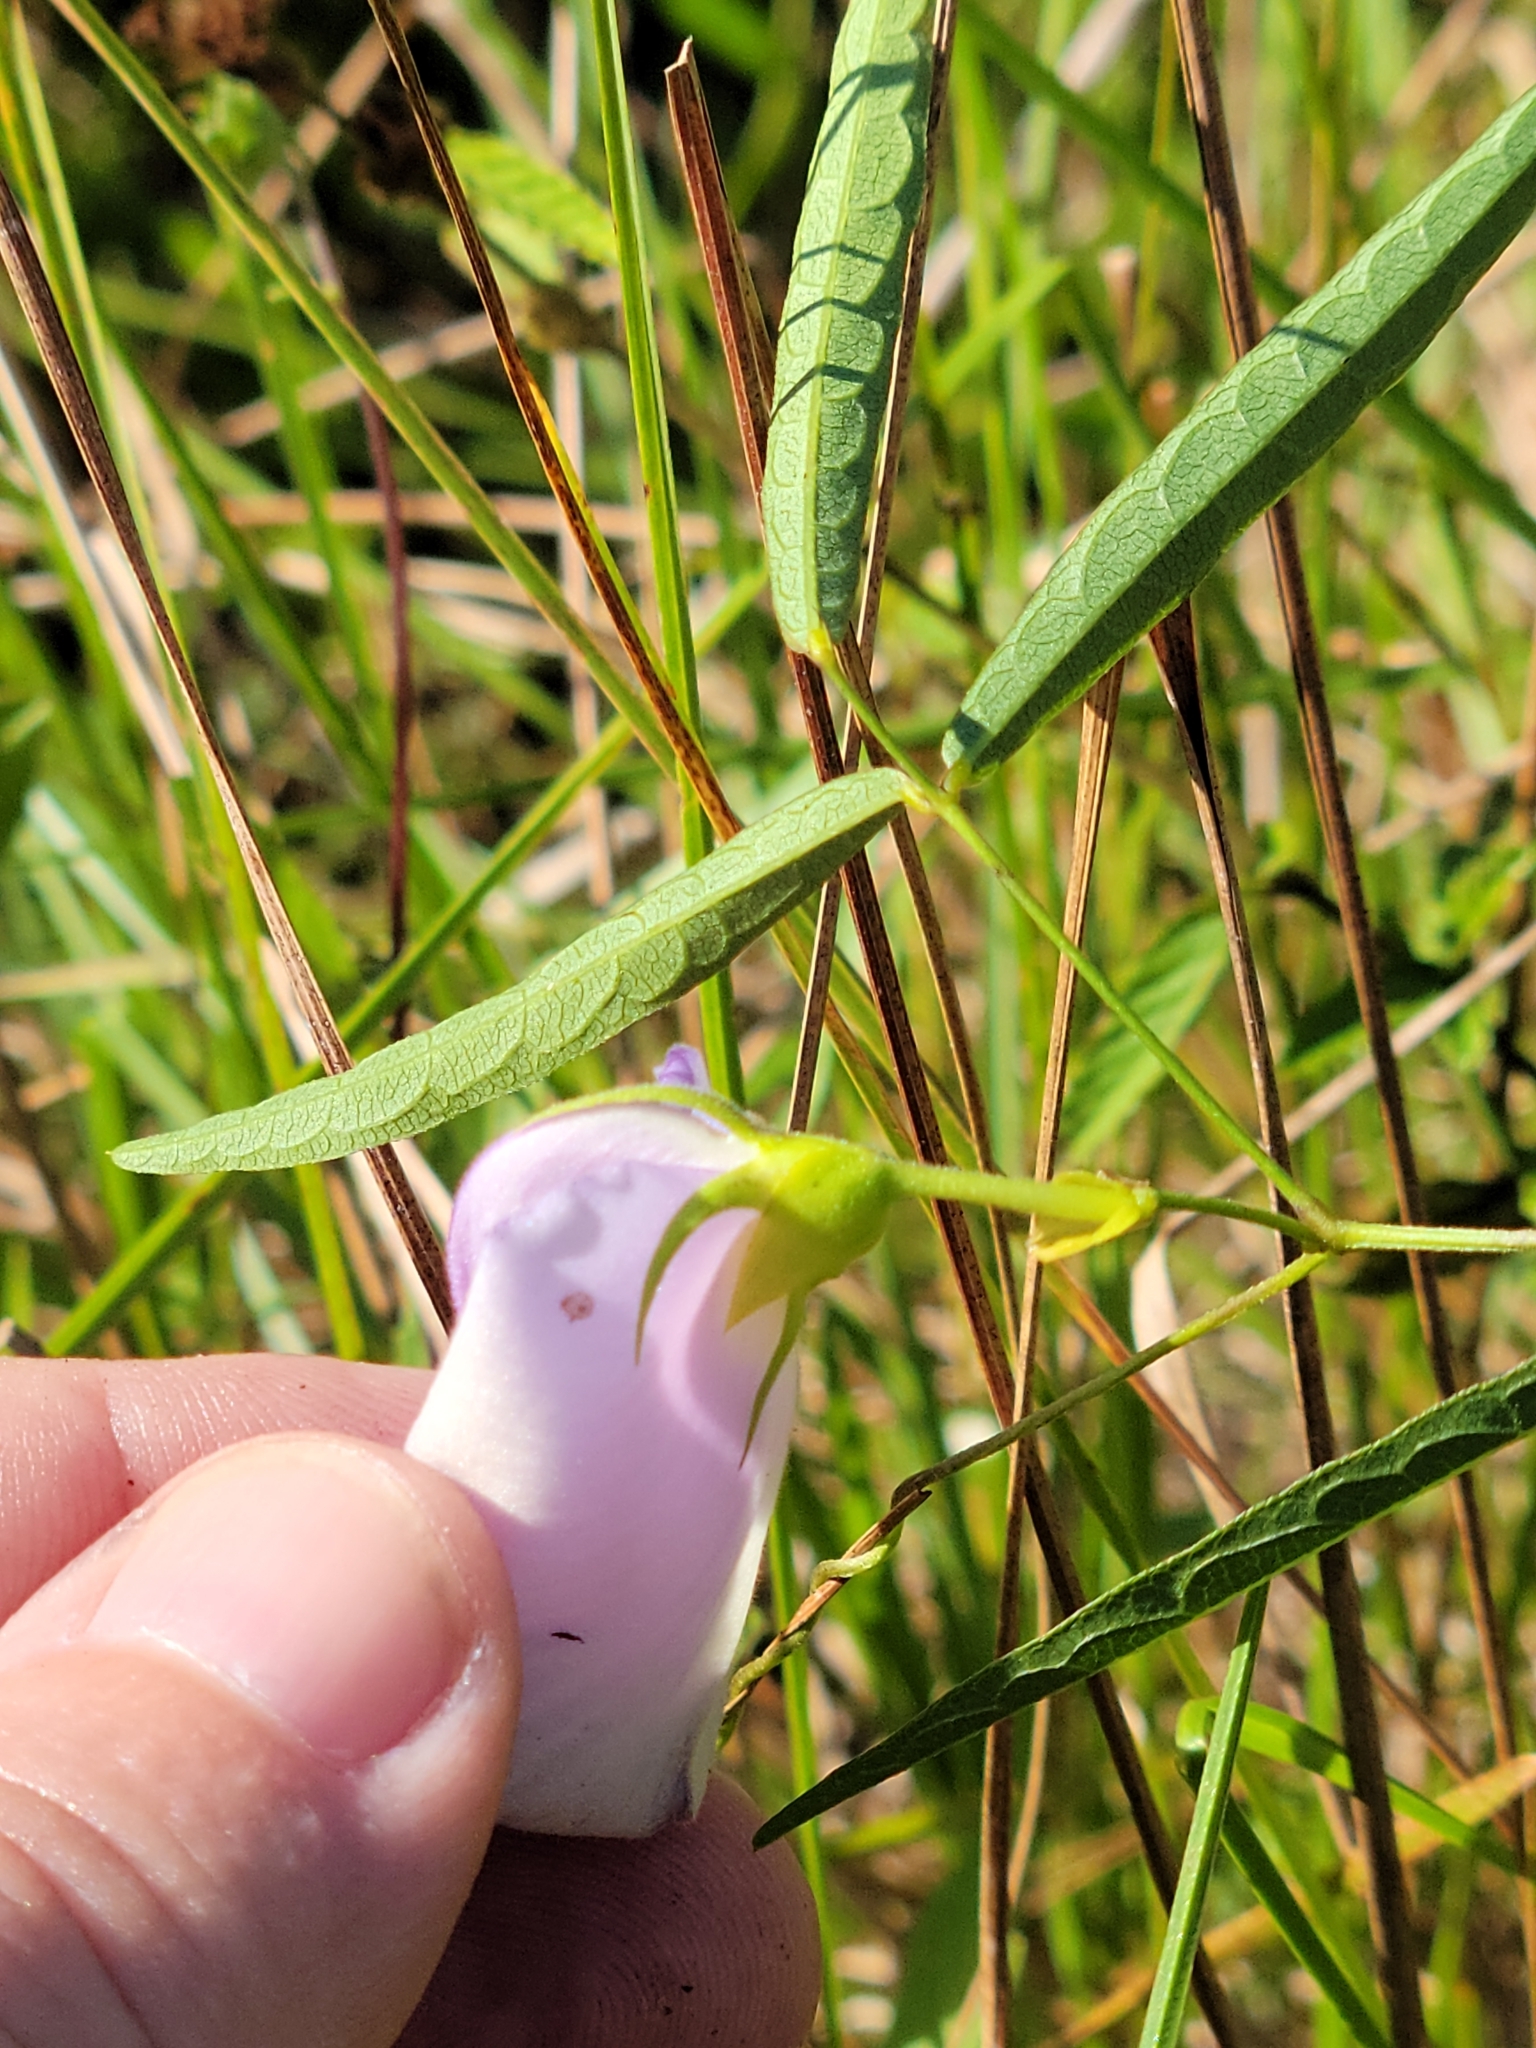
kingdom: Plantae
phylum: Tracheophyta
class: Magnoliopsida
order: Fabales
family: Fabaceae
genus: Centrosema
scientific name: Centrosema virginianum
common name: Butterfly-pea
